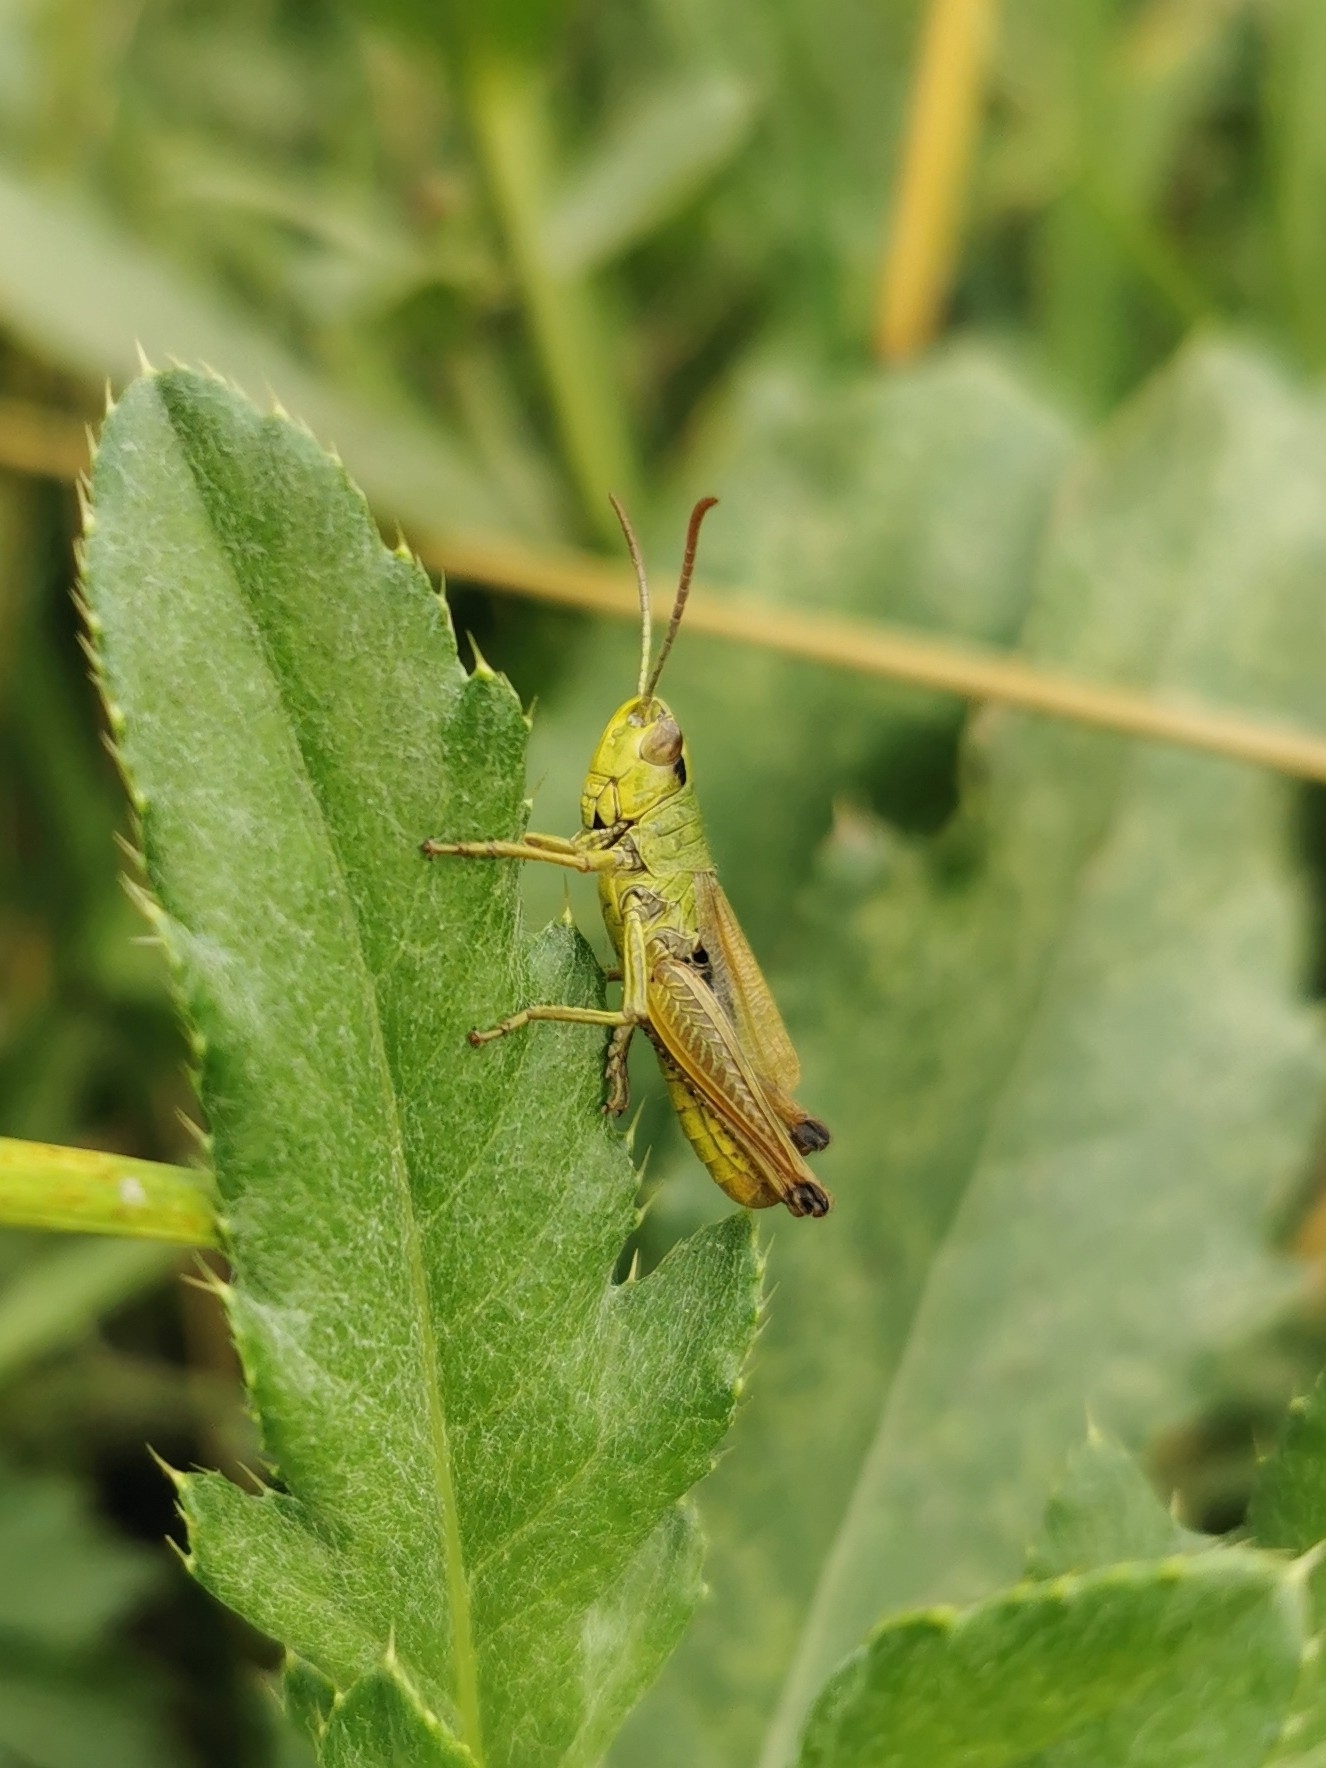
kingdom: Animalia
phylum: Arthropoda
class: Insecta
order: Orthoptera
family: Acrididae
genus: Pseudochorthippus
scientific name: Pseudochorthippus parallelus
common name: Meadow grasshopper
